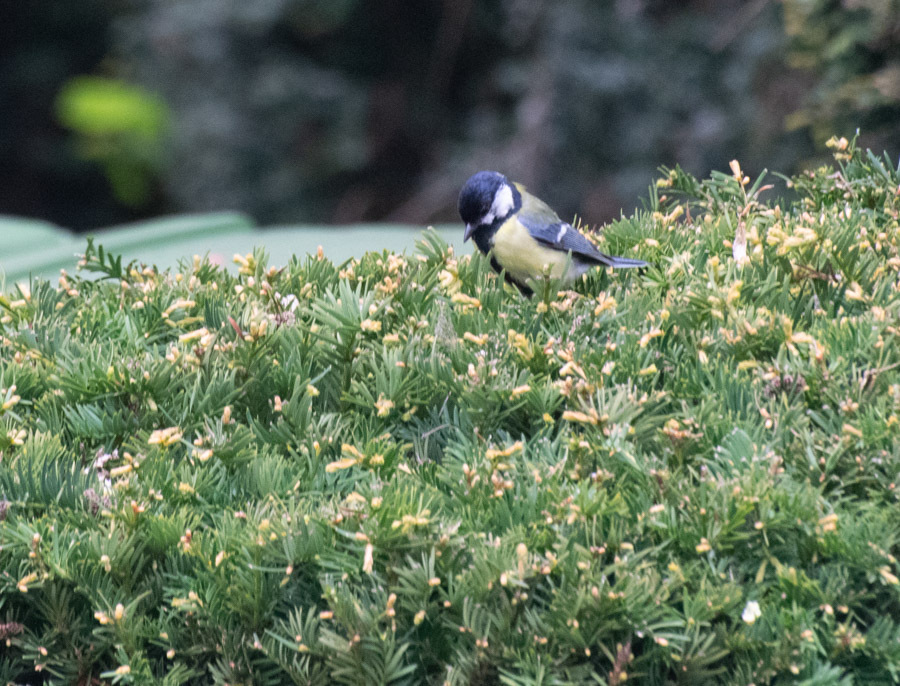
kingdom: Animalia
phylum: Chordata
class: Aves
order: Passeriformes
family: Paridae
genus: Parus
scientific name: Parus major
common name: Great tit
